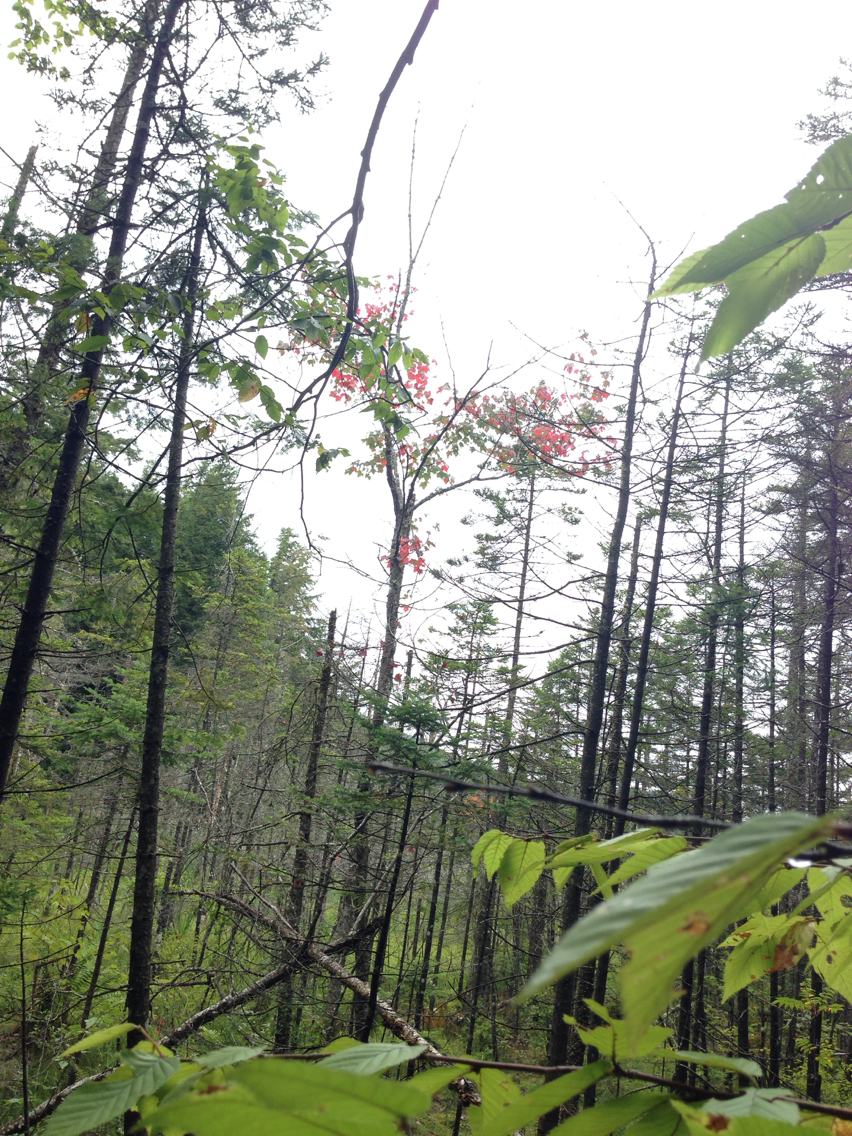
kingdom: Plantae
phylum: Tracheophyta
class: Magnoliopsida
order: Sapindales
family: Sapindaceae
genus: Acer
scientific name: Acer rubrum
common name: Red maple
